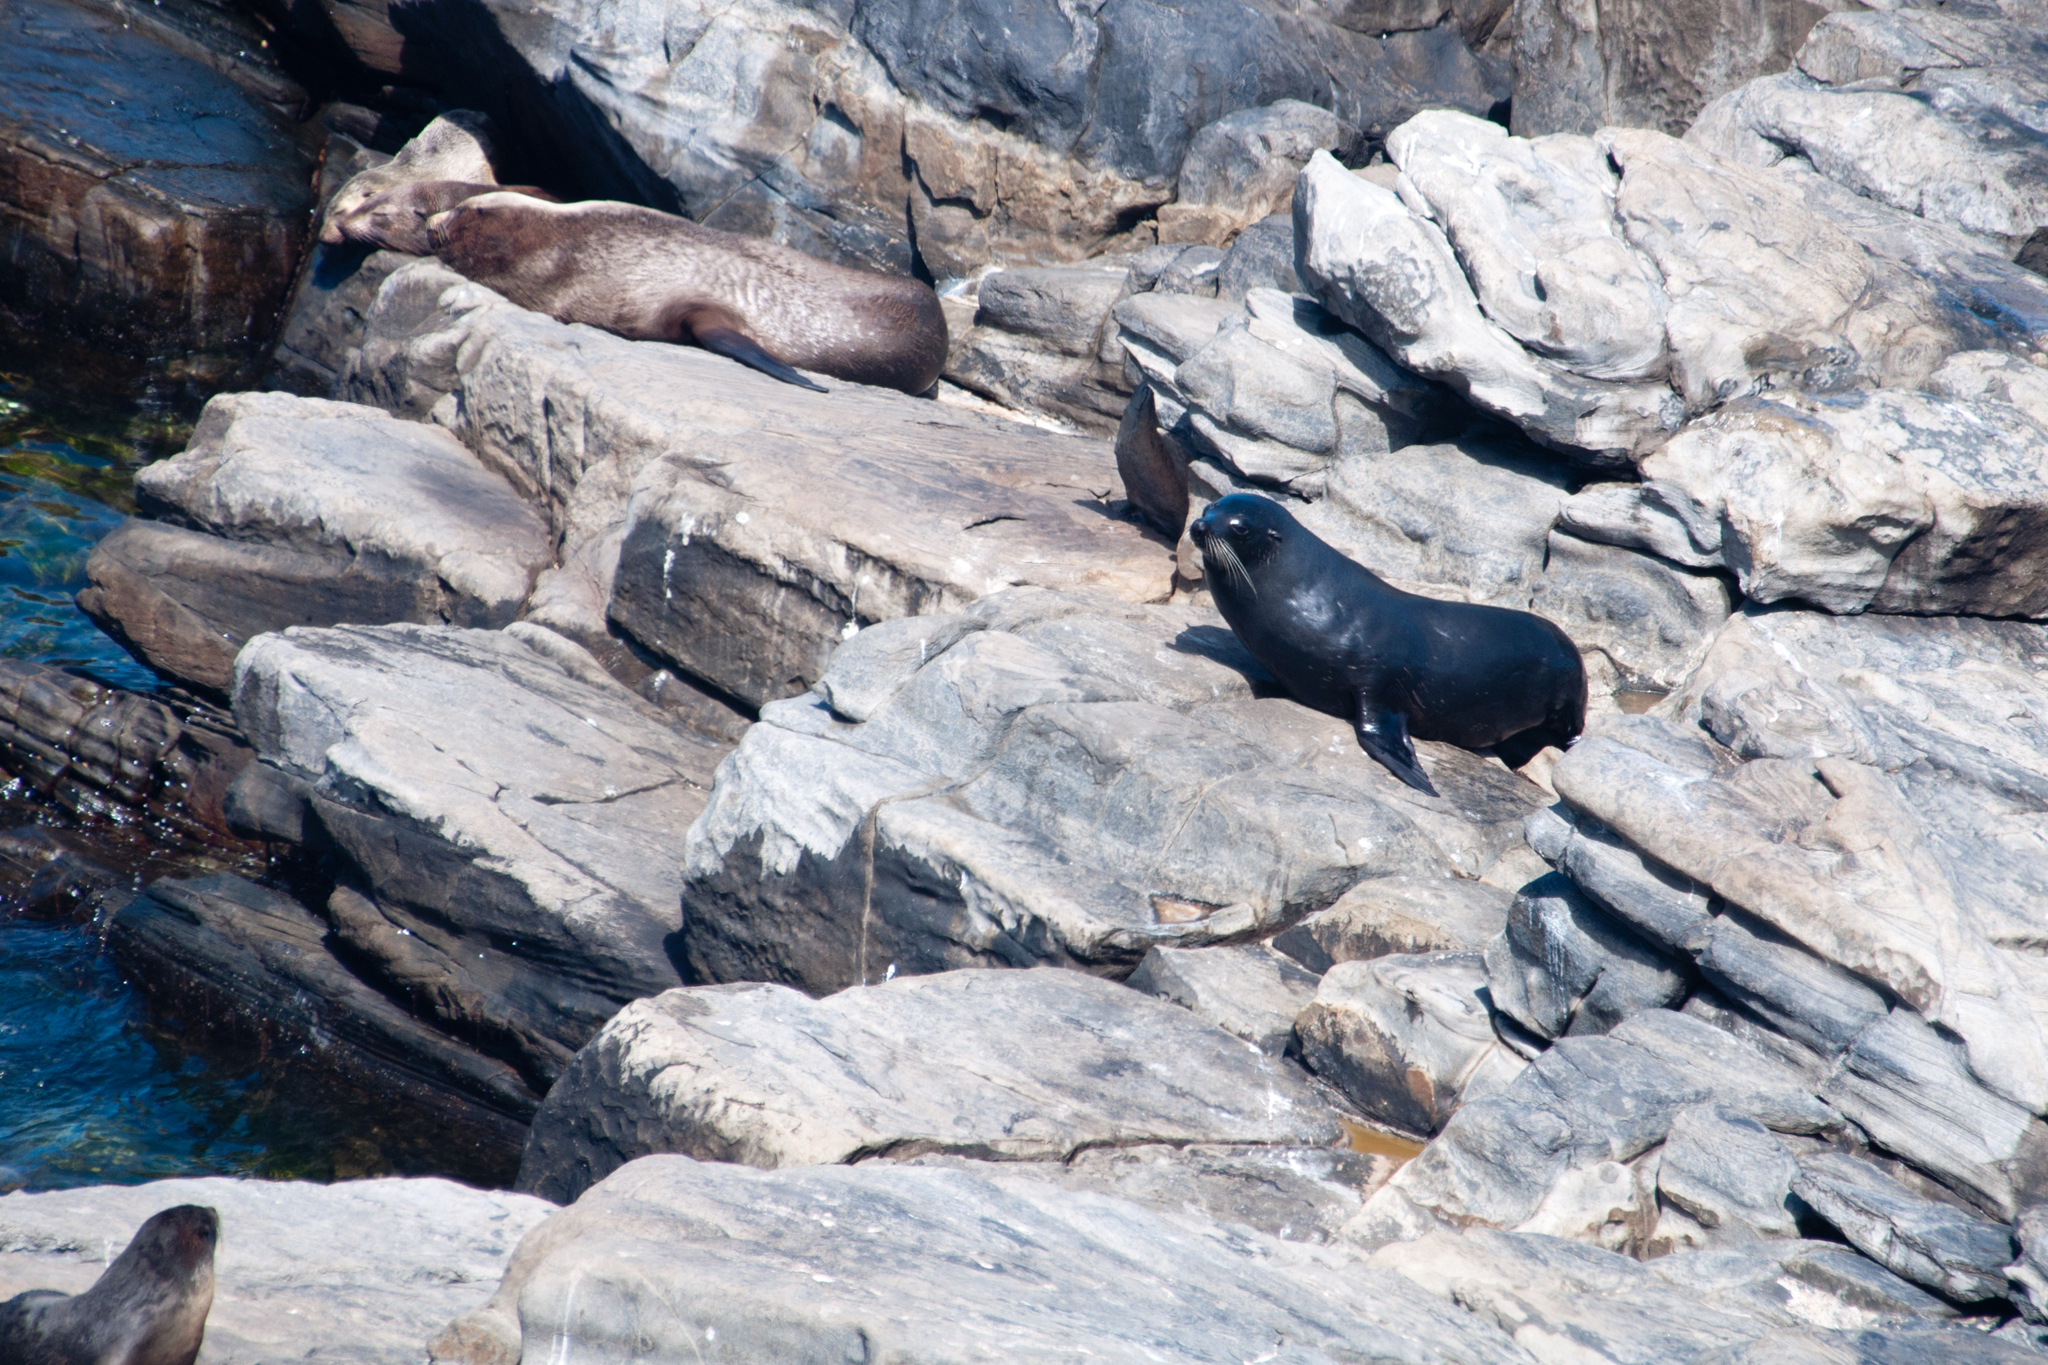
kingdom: Animalia
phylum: Chordata
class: Mammalia
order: Carnivora
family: Otariidae
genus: Arctocephalus
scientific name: Arctocephalus forsteri
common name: New zealand fur seal
